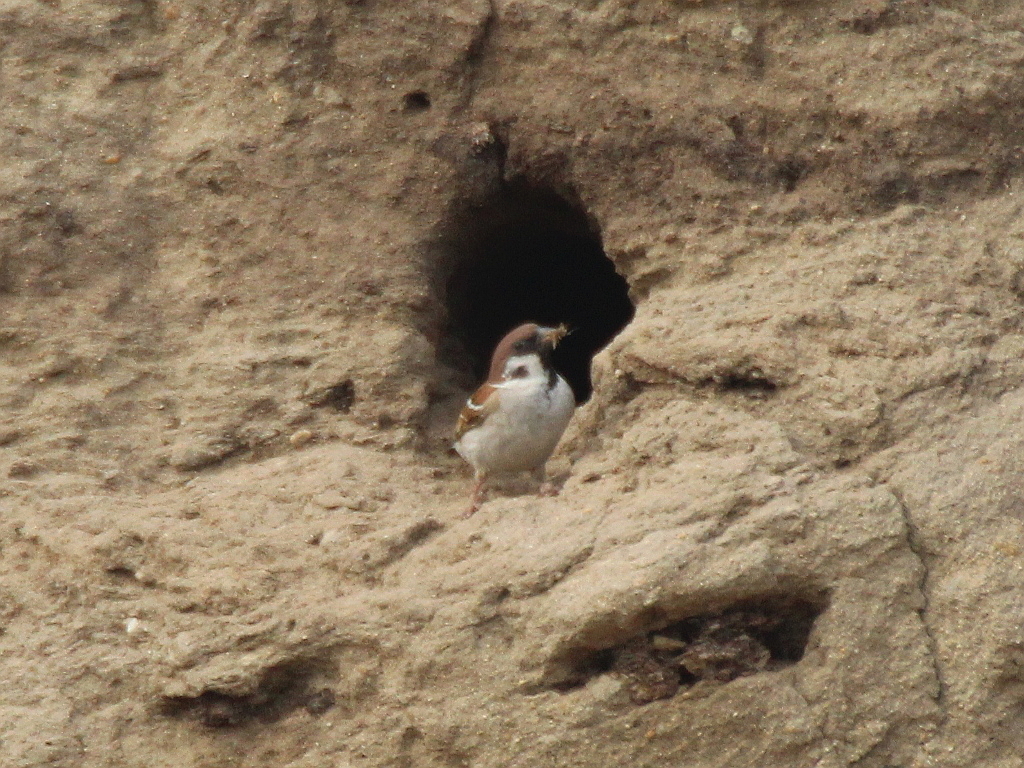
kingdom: Animalia
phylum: Chordata
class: Aves
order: Passeriformes
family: Passeridae
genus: Passer
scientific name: Passer montanus
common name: Eurasian tree sparrow
